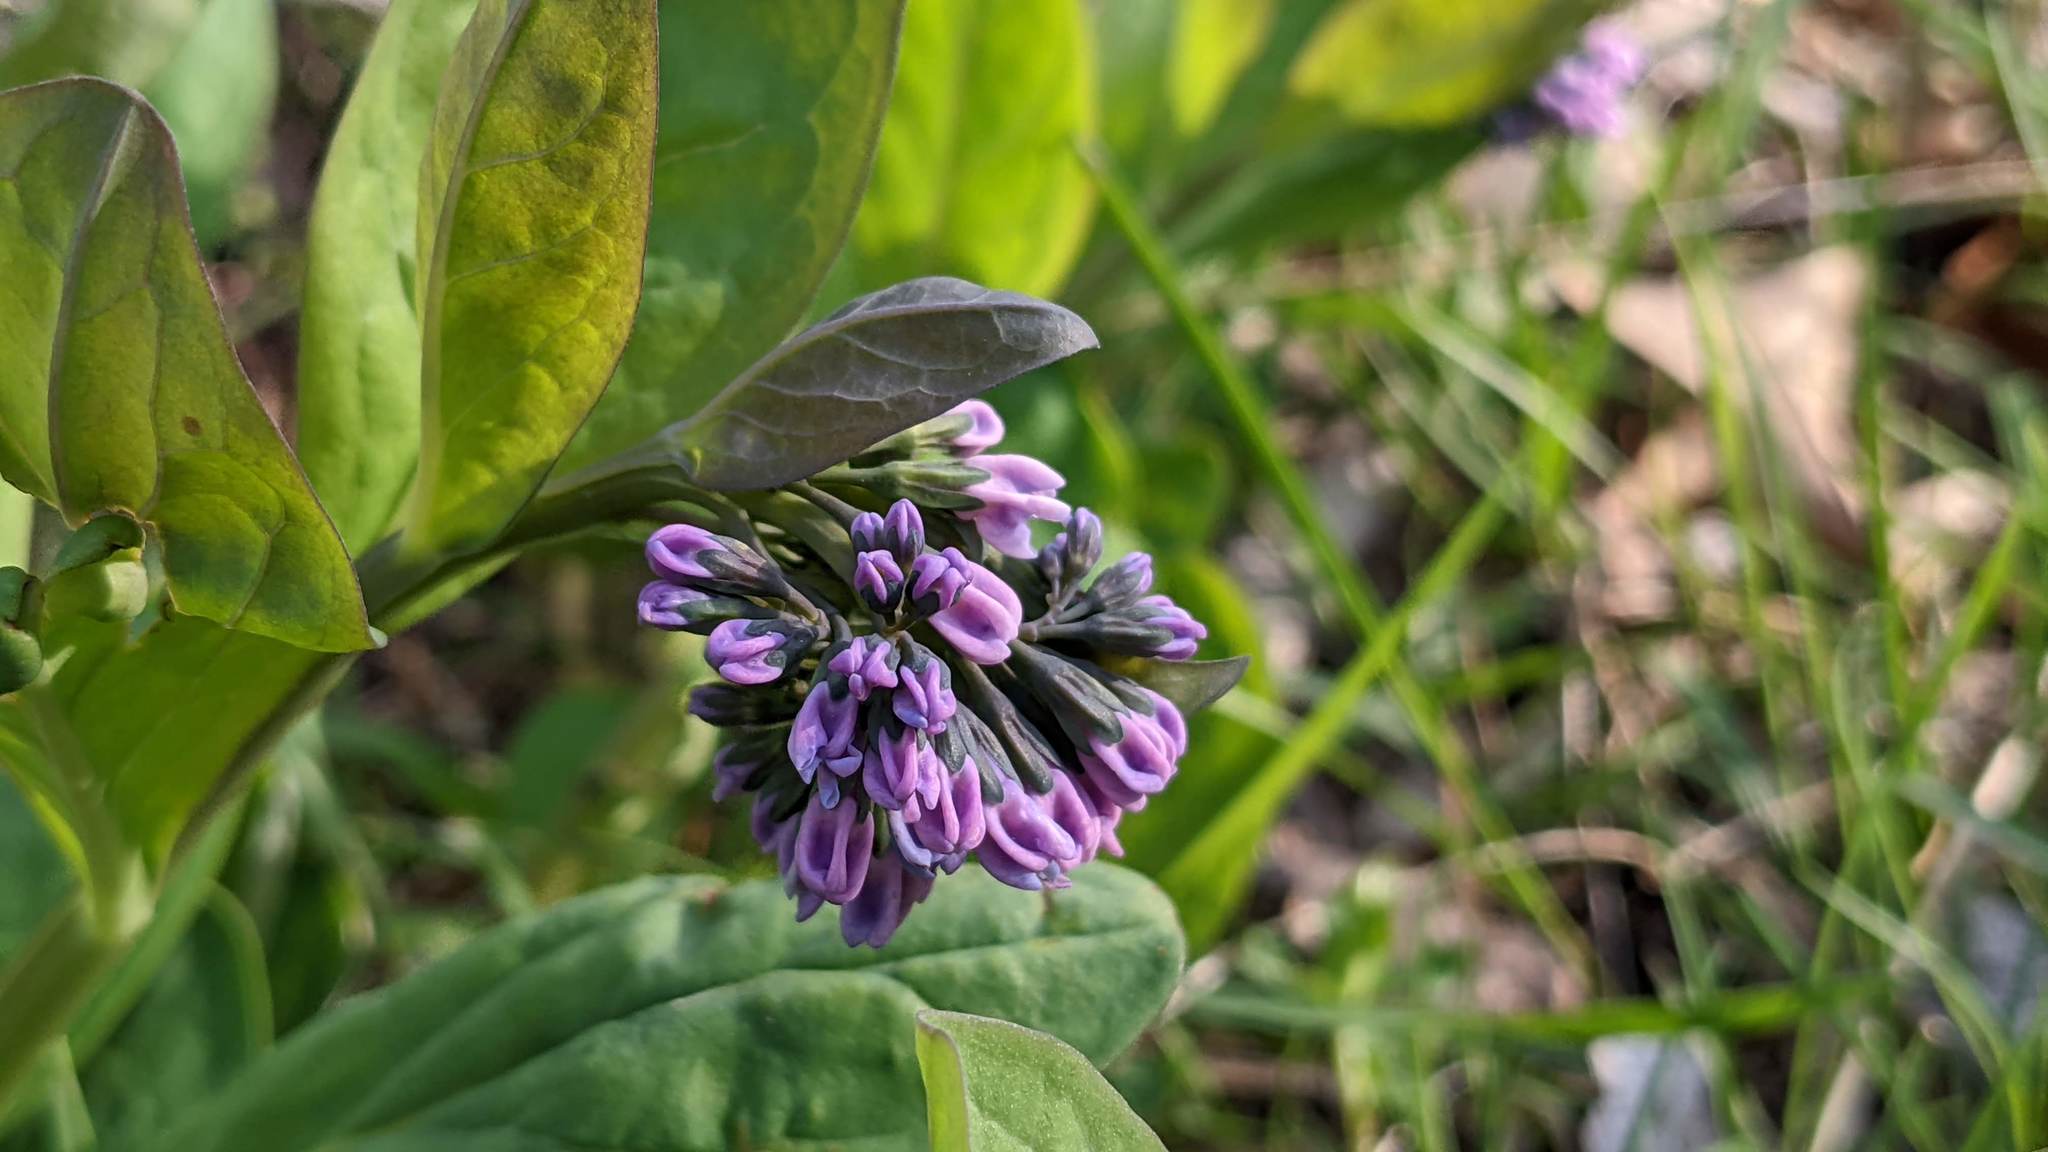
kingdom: Plantae
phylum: Tracheophyta
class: Magnoliopsida
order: Boraginales
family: Boraginaceae
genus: Mertensia
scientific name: Mertensia virginica
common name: Virginia bluebells
